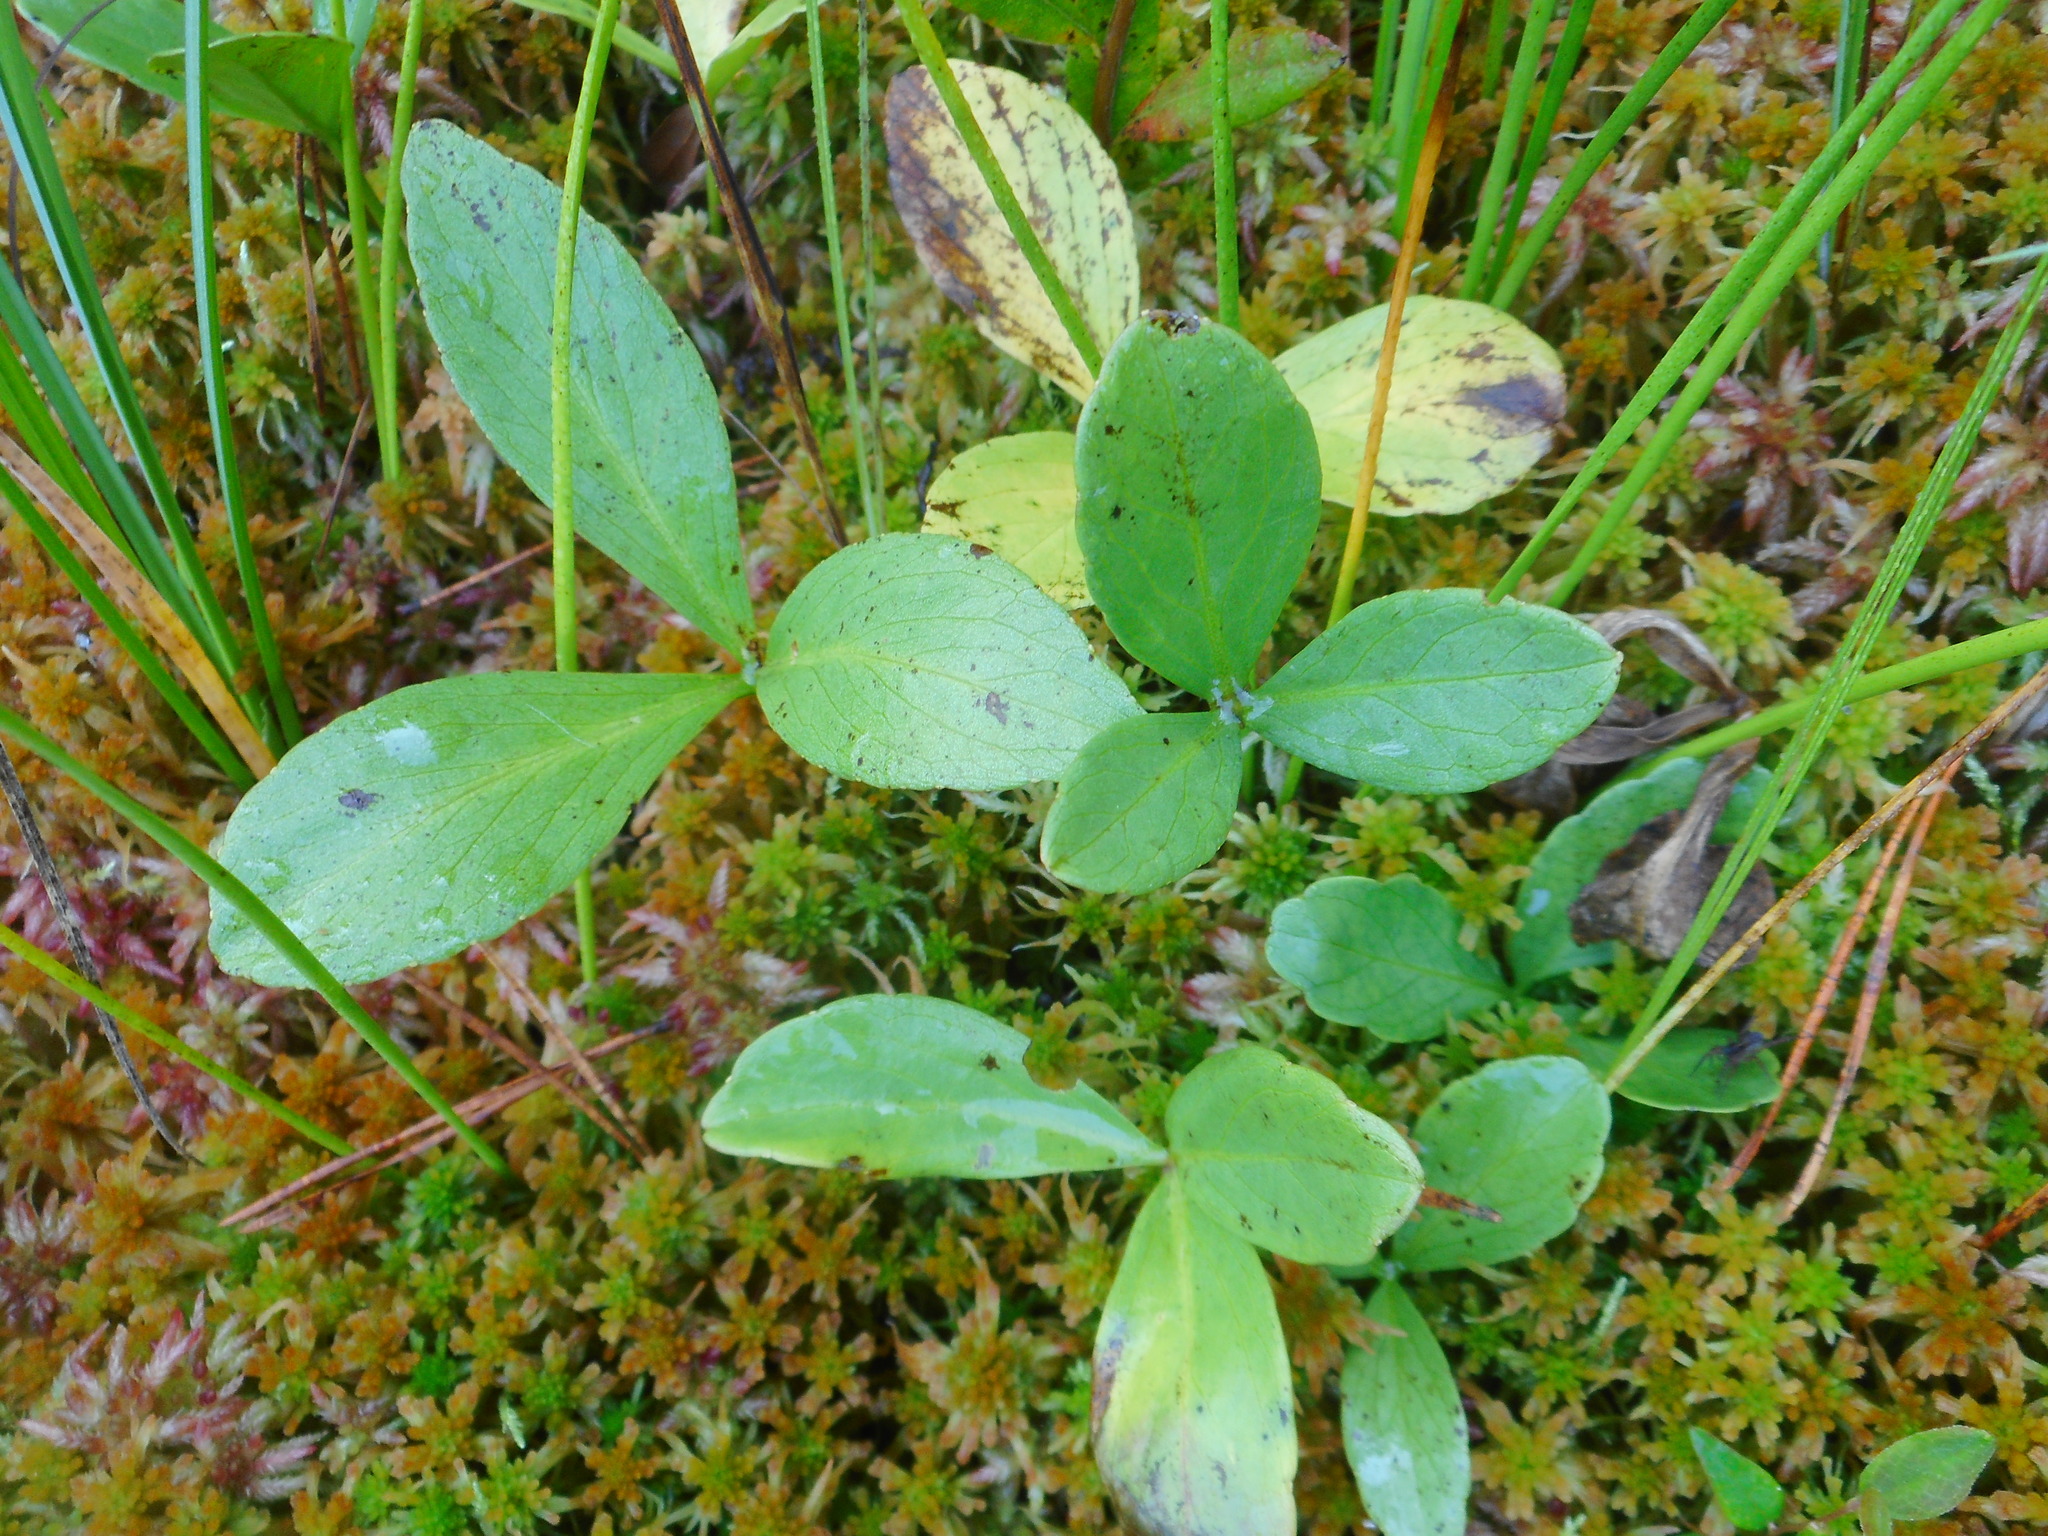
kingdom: Plantae
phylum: Tracheophyta
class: Magnoliopsida
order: Asterales
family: Menyanthaceae
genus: Menyanthes
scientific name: Menyanthes trifoliata
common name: Bogbean
